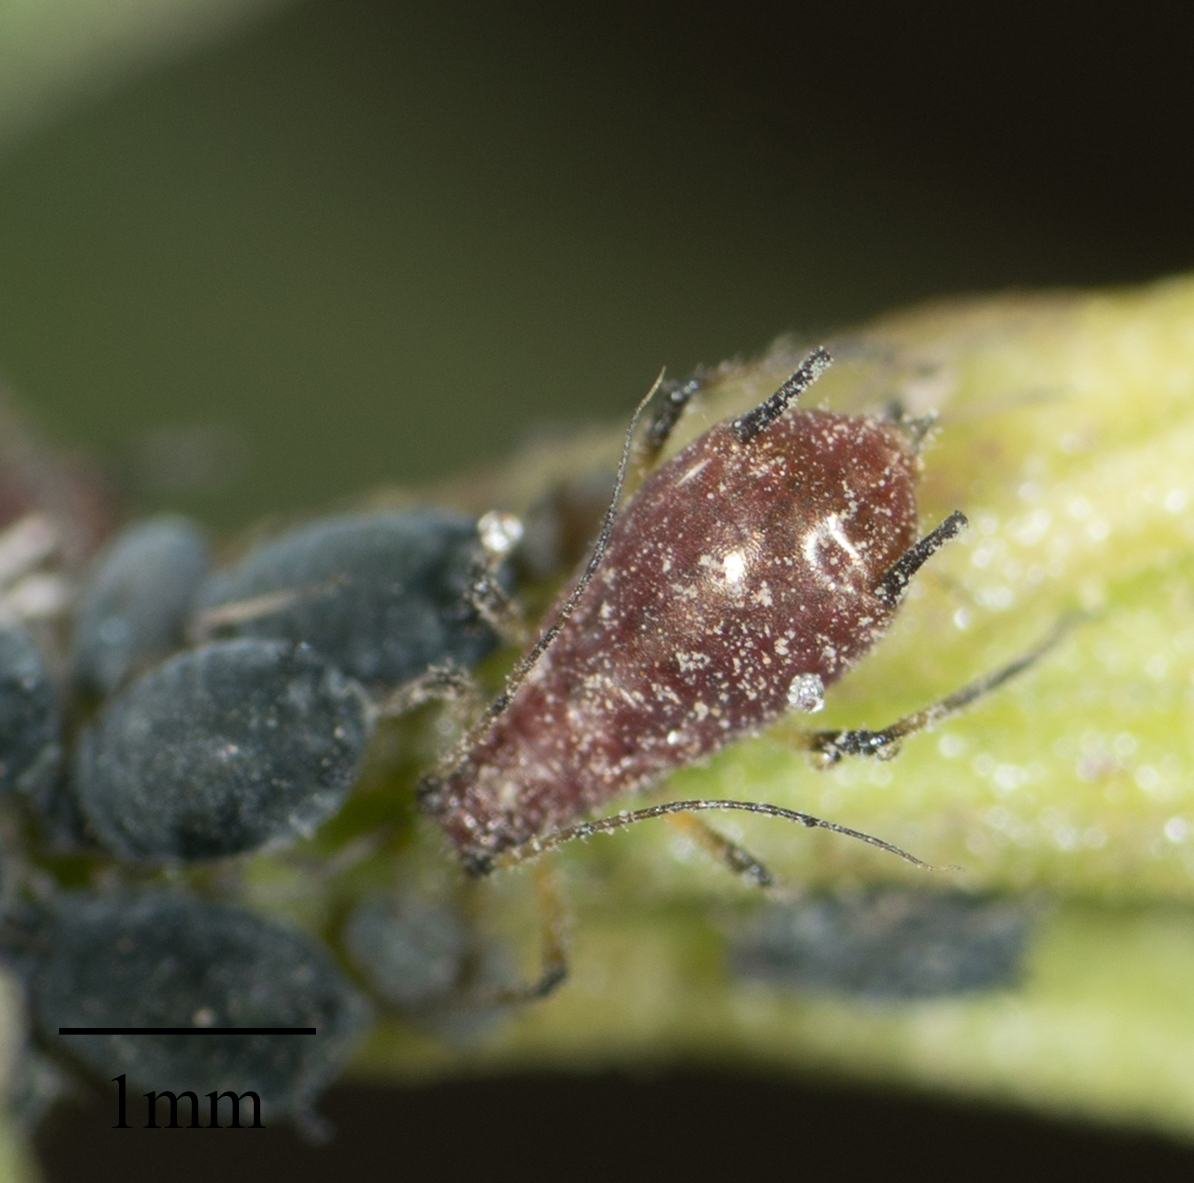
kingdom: Animalia
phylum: Arthropoda
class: Insecta
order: Hemiptera
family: Aphididae
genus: Uroleucon
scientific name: Uroleucon ambrosiae
